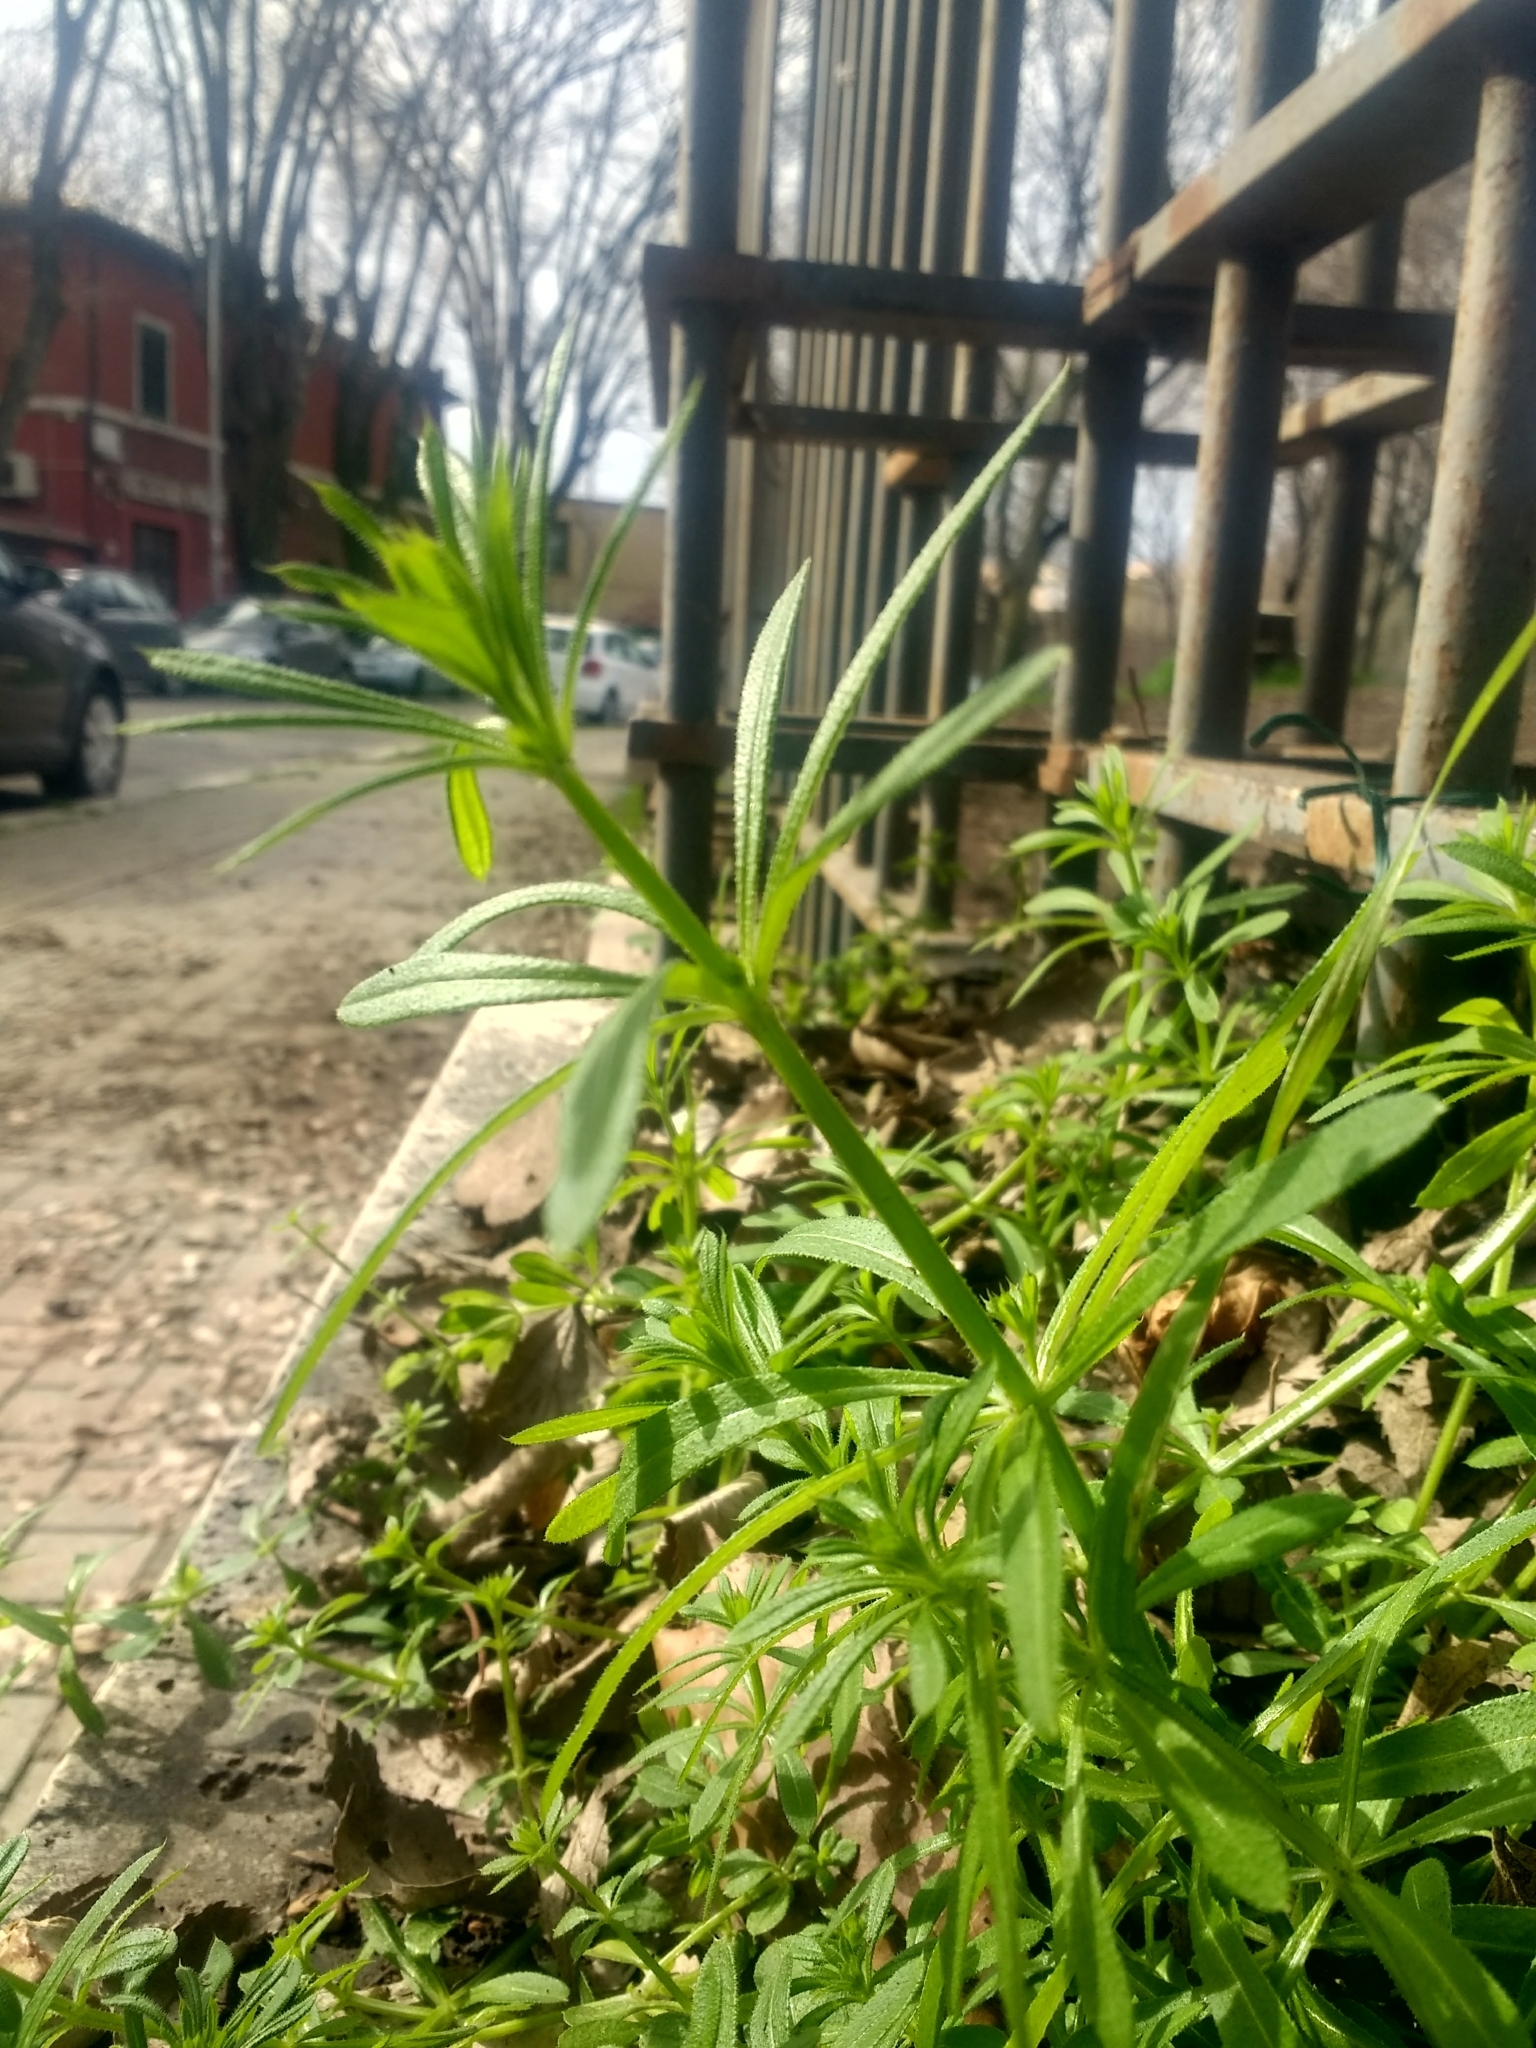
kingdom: Plantae
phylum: Tracheophyta
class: Magnoliopsida
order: Gentianales
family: Rubiaceae
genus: Galium
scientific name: Galium aparine
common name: Cleavers
